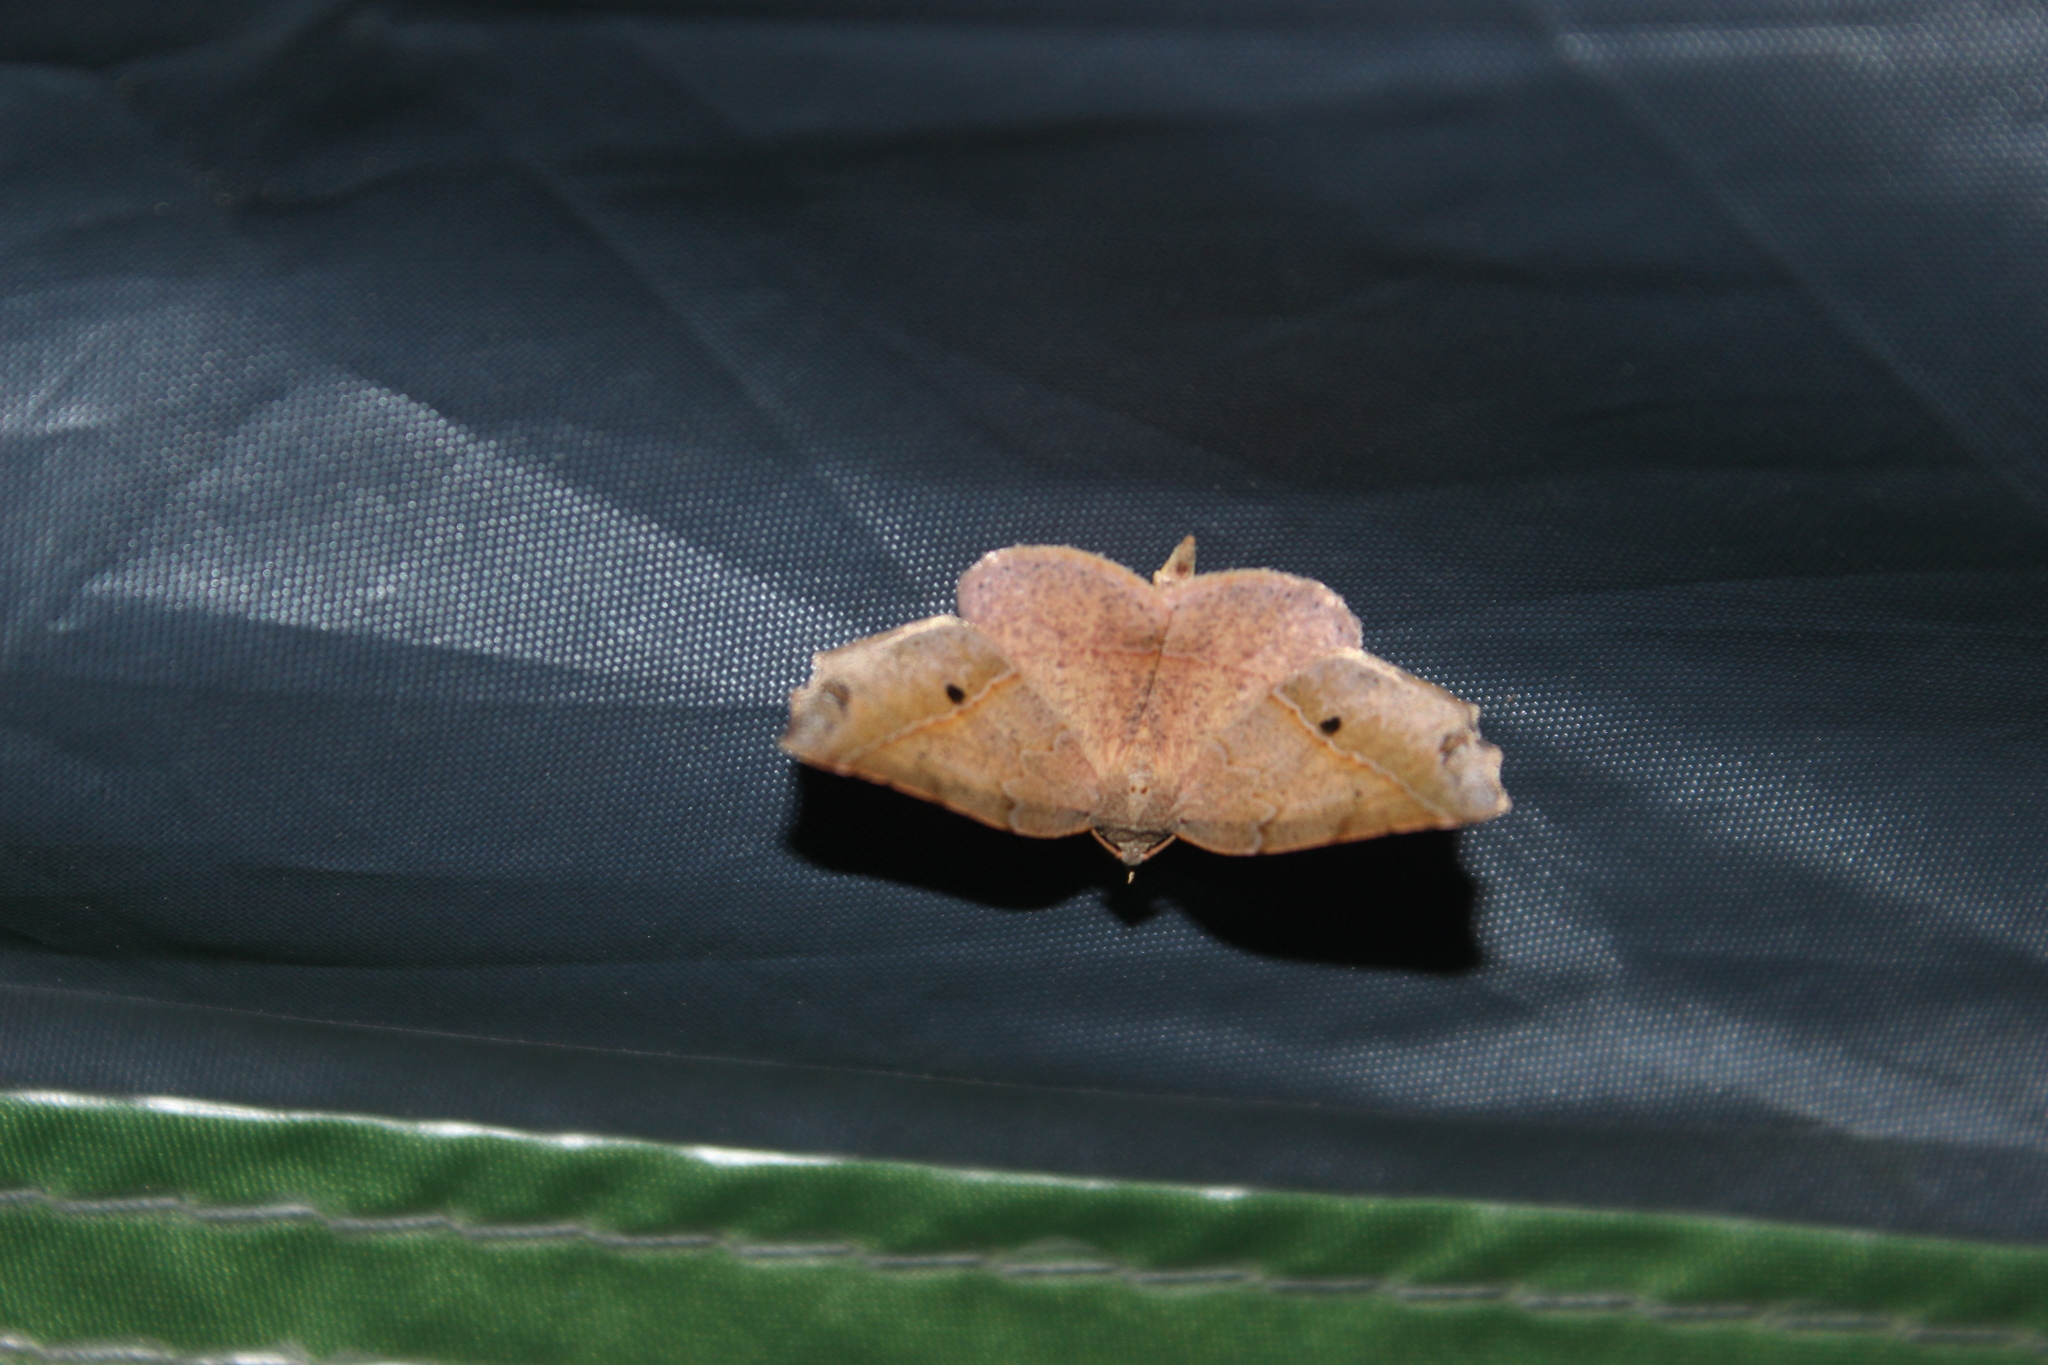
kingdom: Animalia
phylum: Arthropoda
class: Insecta
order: Lepidoptera
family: Geometridae
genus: Ischalis
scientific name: Ischalis gallaria
